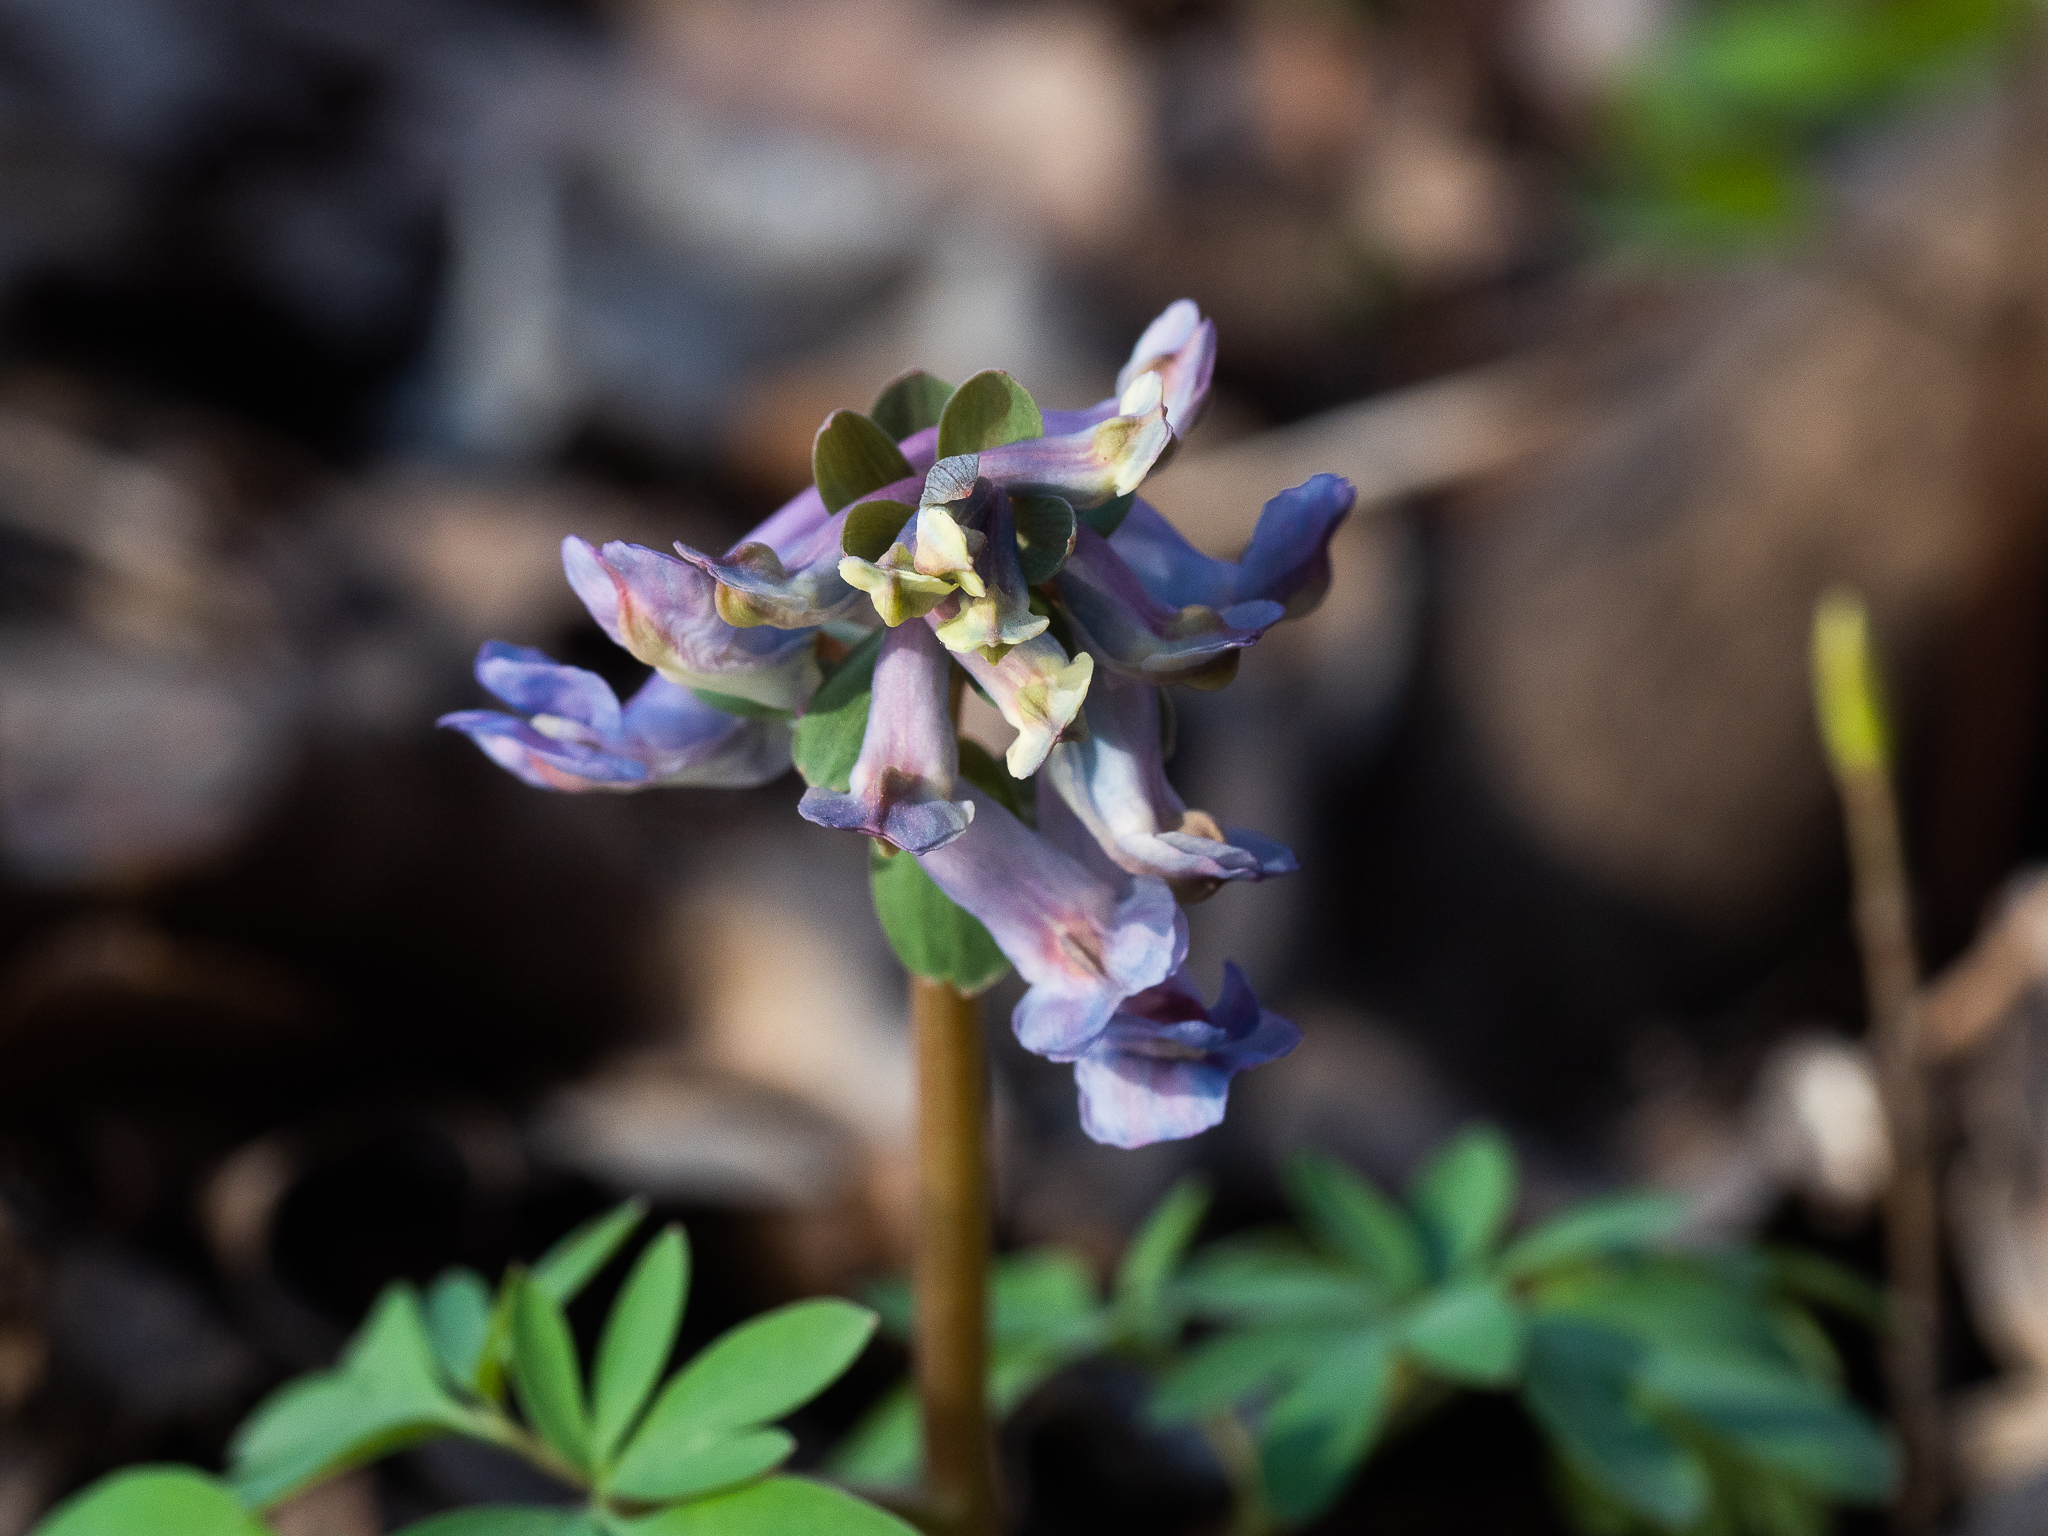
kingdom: Plantae
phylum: Tracheophyta
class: Magnoliopsida
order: Ranunculales
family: Papaveraceae
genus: Corydalis
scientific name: Corydalis solida
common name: Bird-in-a-bush
